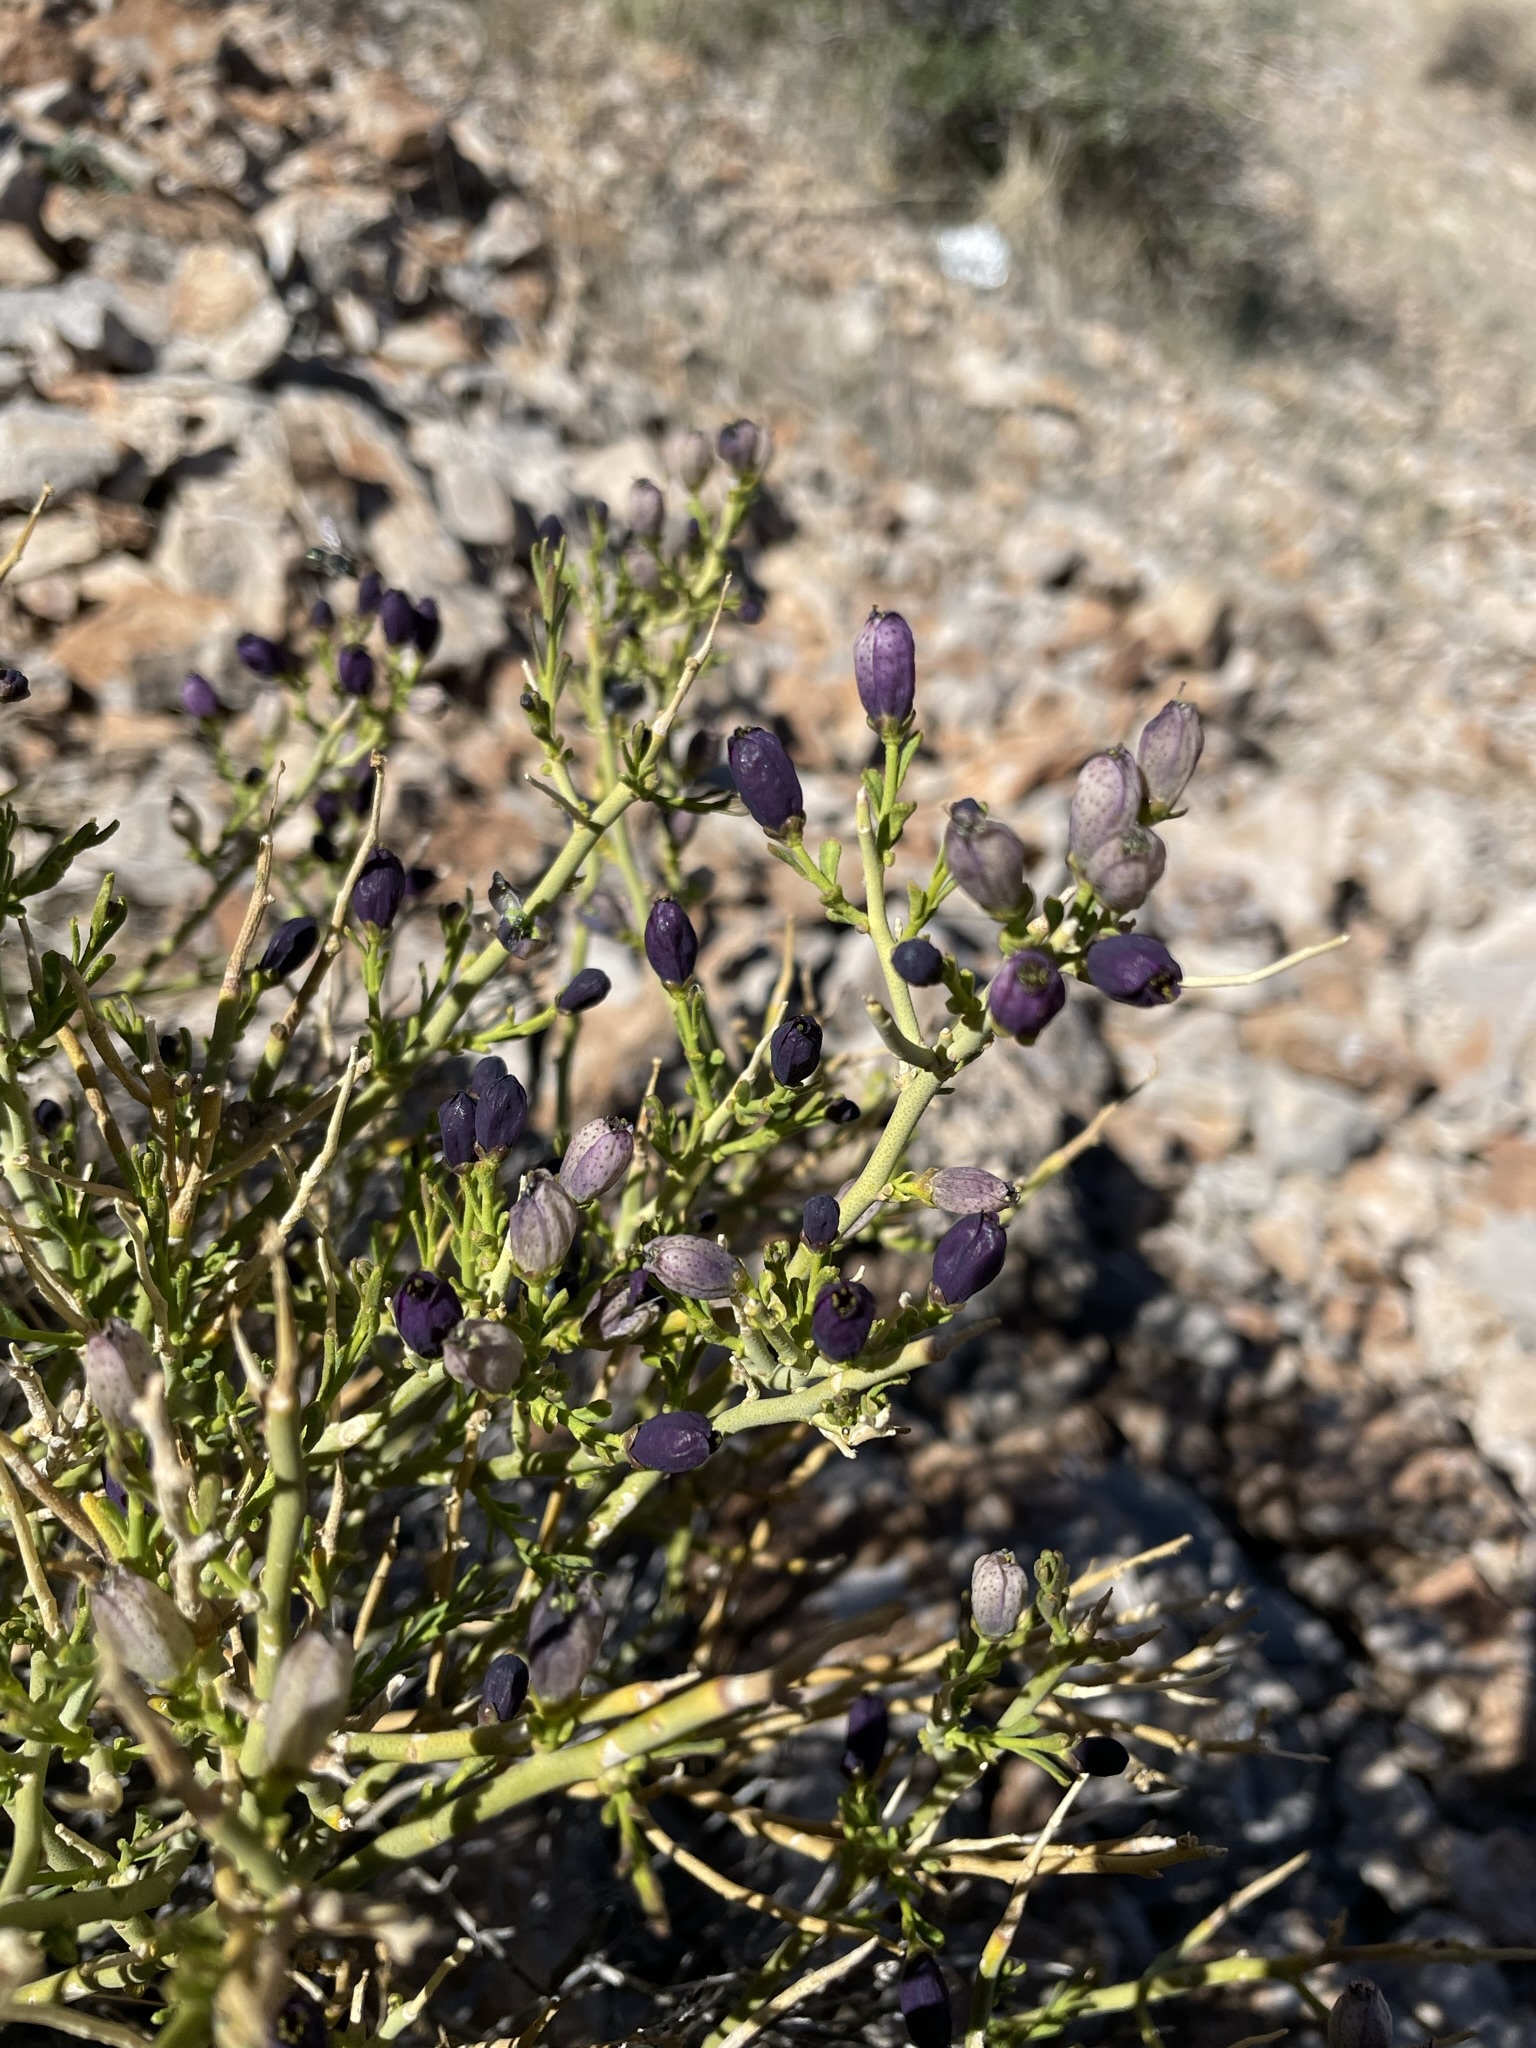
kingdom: Plantae
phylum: Tracheophyta
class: Magnoliopsida
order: Sapindales
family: Rutaceae
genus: Thamnosma
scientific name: Thamnosma montana
